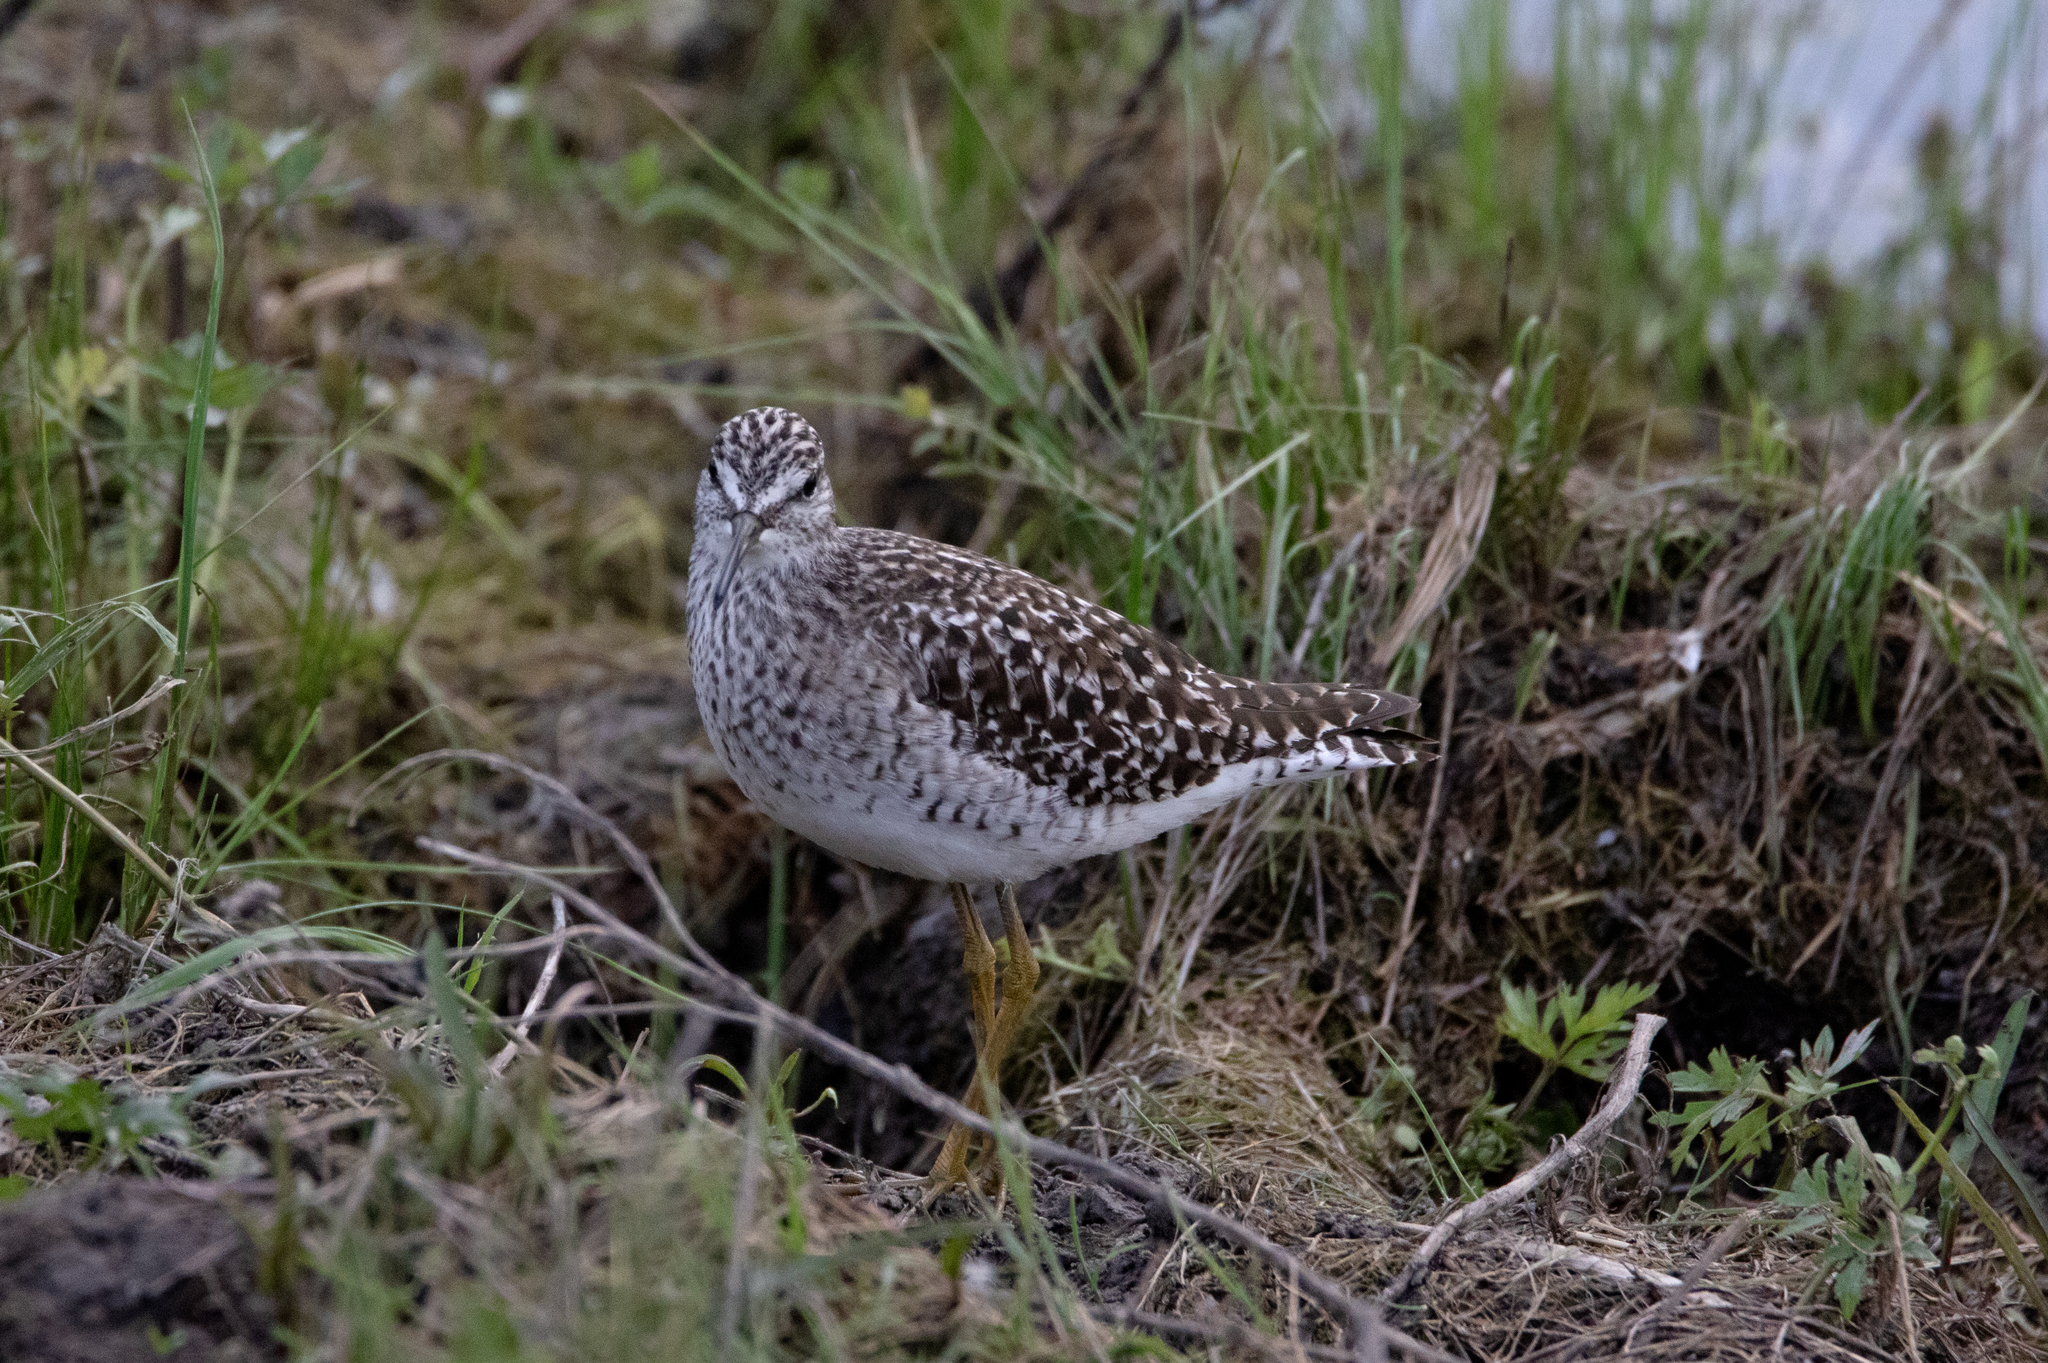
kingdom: Animalia
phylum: Chordata
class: Aves
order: Charadriiformes
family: Scolopacidae
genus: Tringa
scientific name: Tringa stagnatilis
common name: Marsh sandpiper
